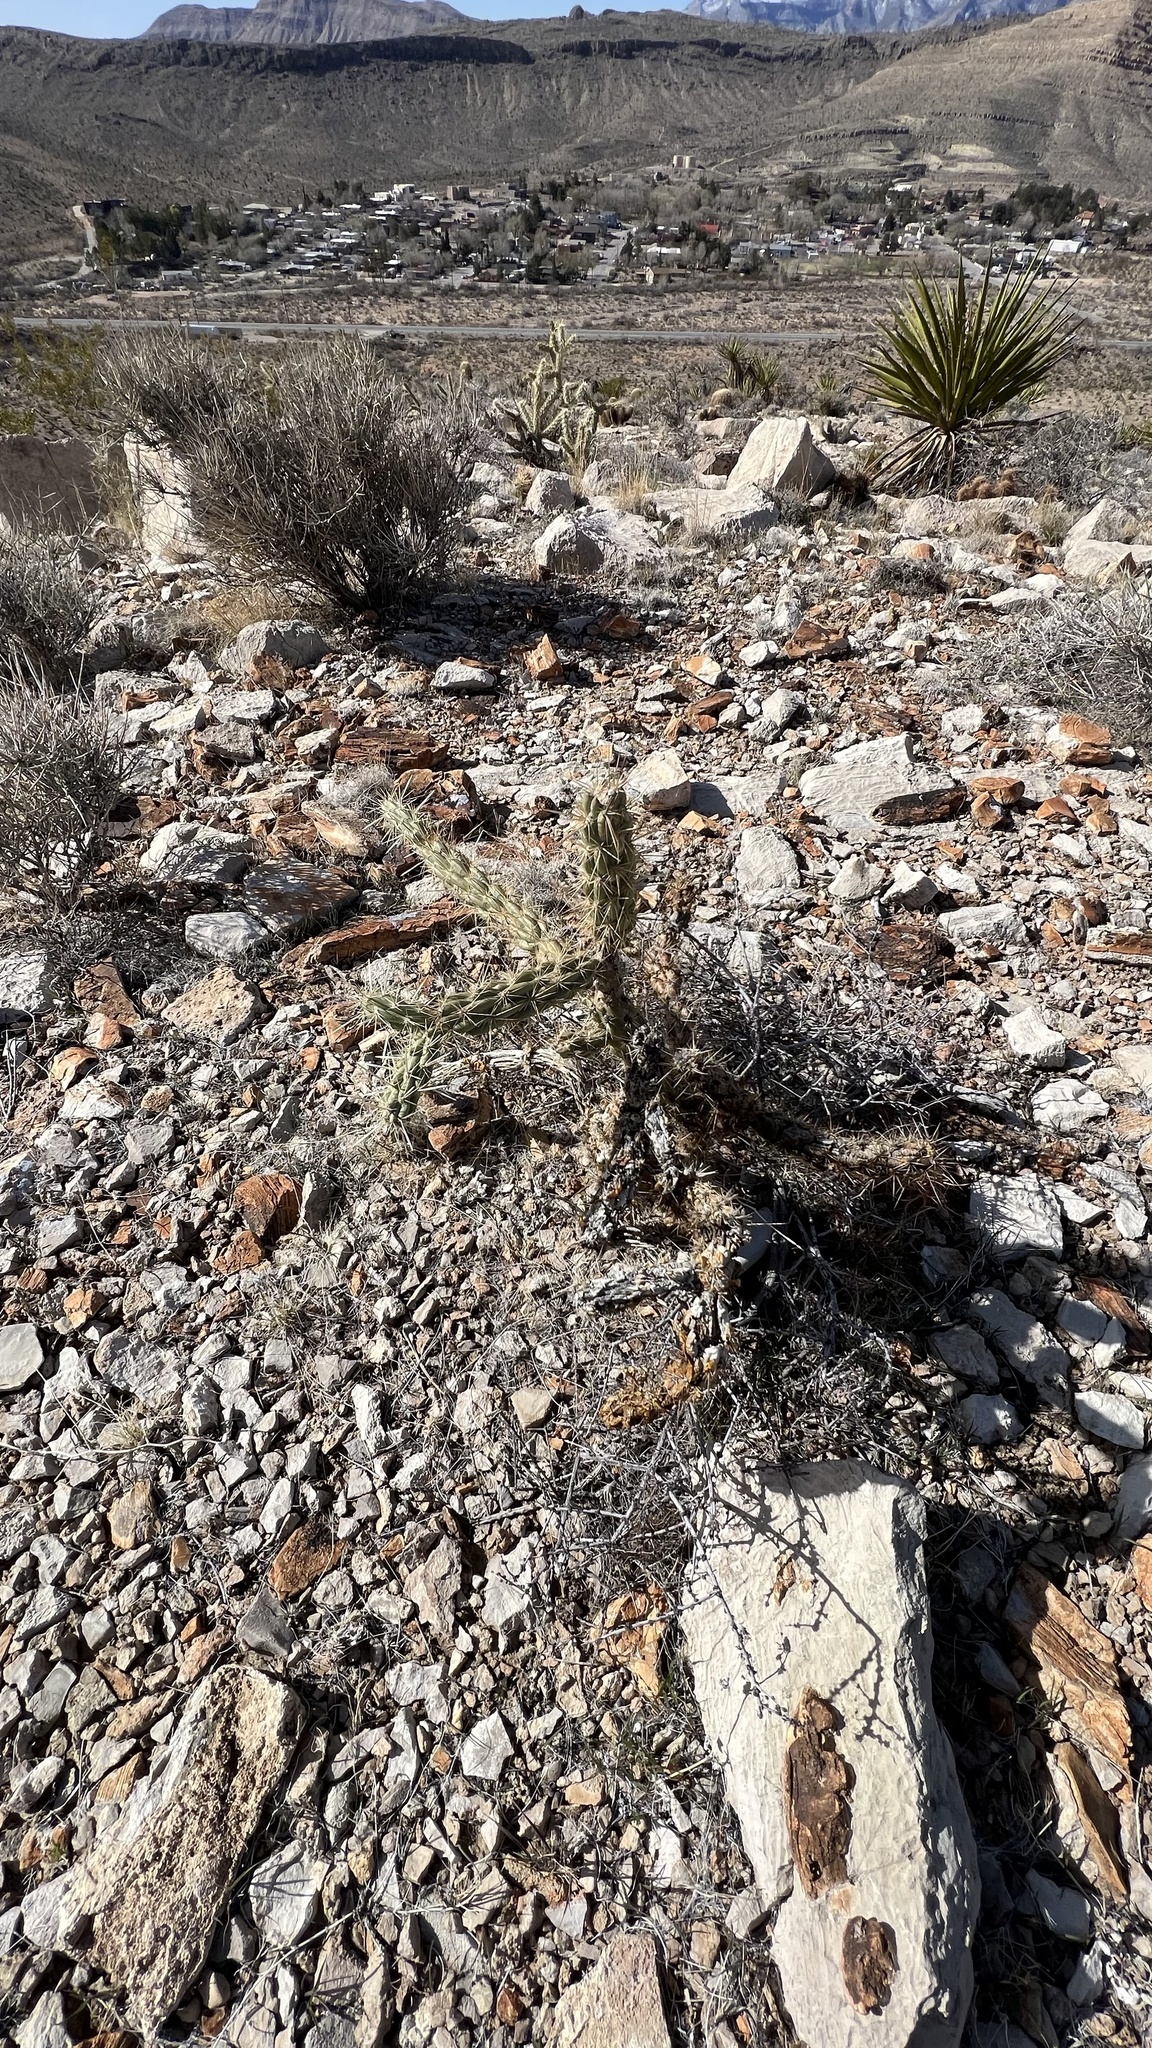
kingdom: Plantae
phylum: Tracheophyta
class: Magnoliopsida
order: Caryophyllales
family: Cactaceae
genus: Cylindropuntia
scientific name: Cylindropuntia acanthocarpa
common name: Buckhorn cholla
